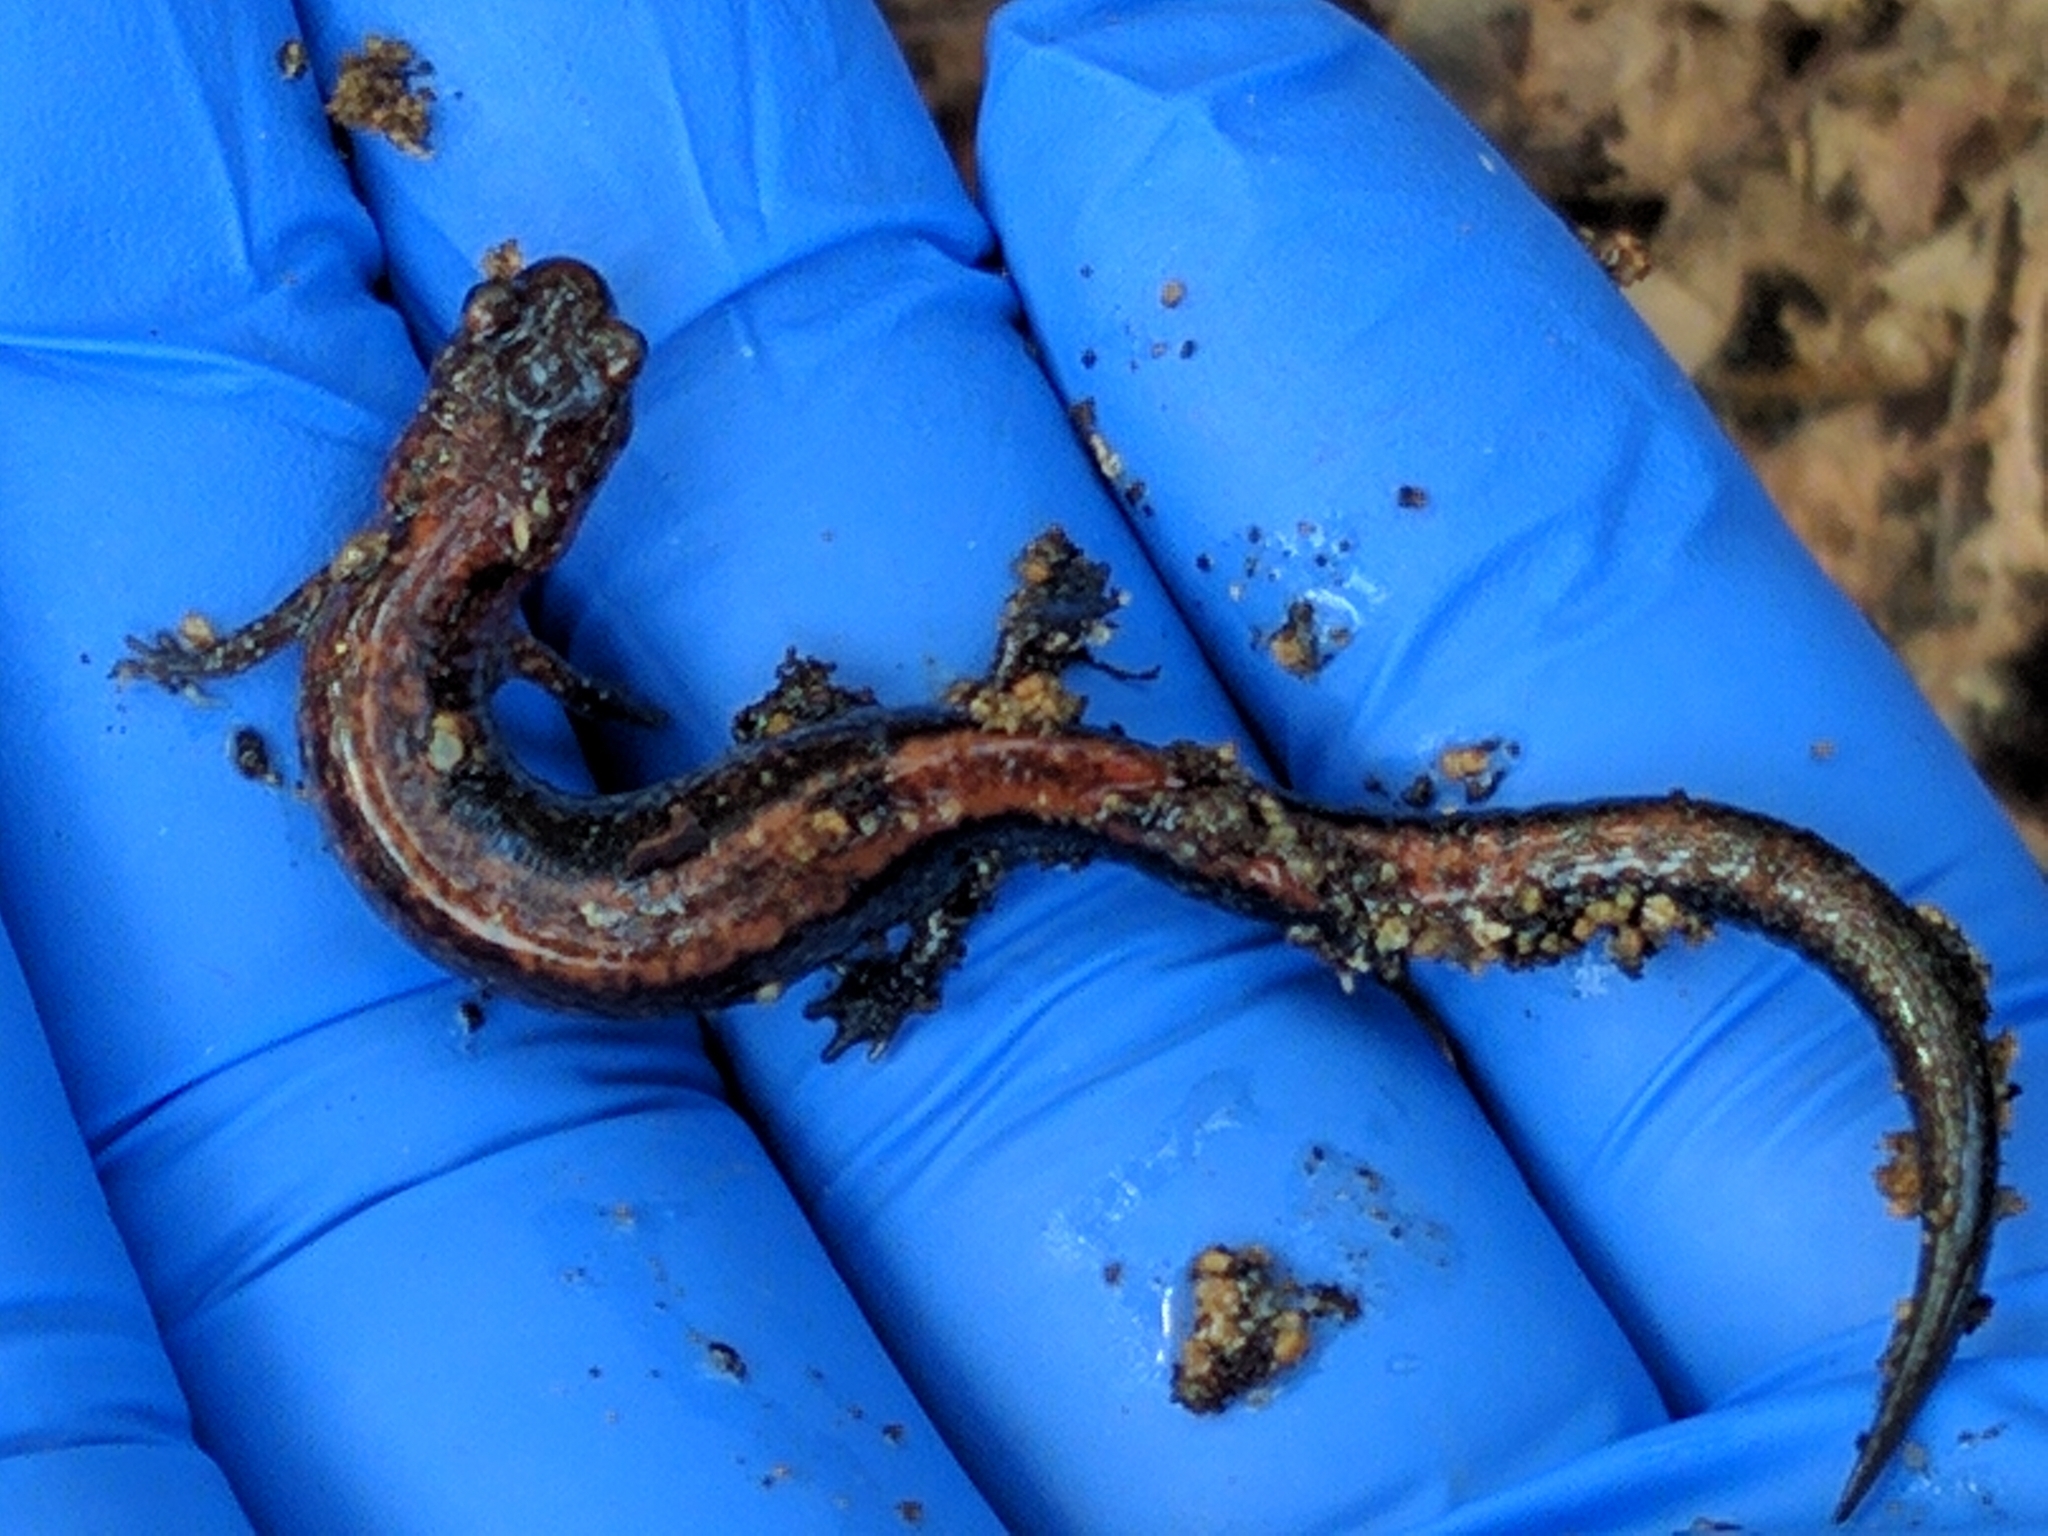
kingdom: Animalia
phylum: Chordata
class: Amphibia
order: Caudata
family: Plethodontidae
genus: Plethodon
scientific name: Plethodon cinereus
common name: Redback salamander
